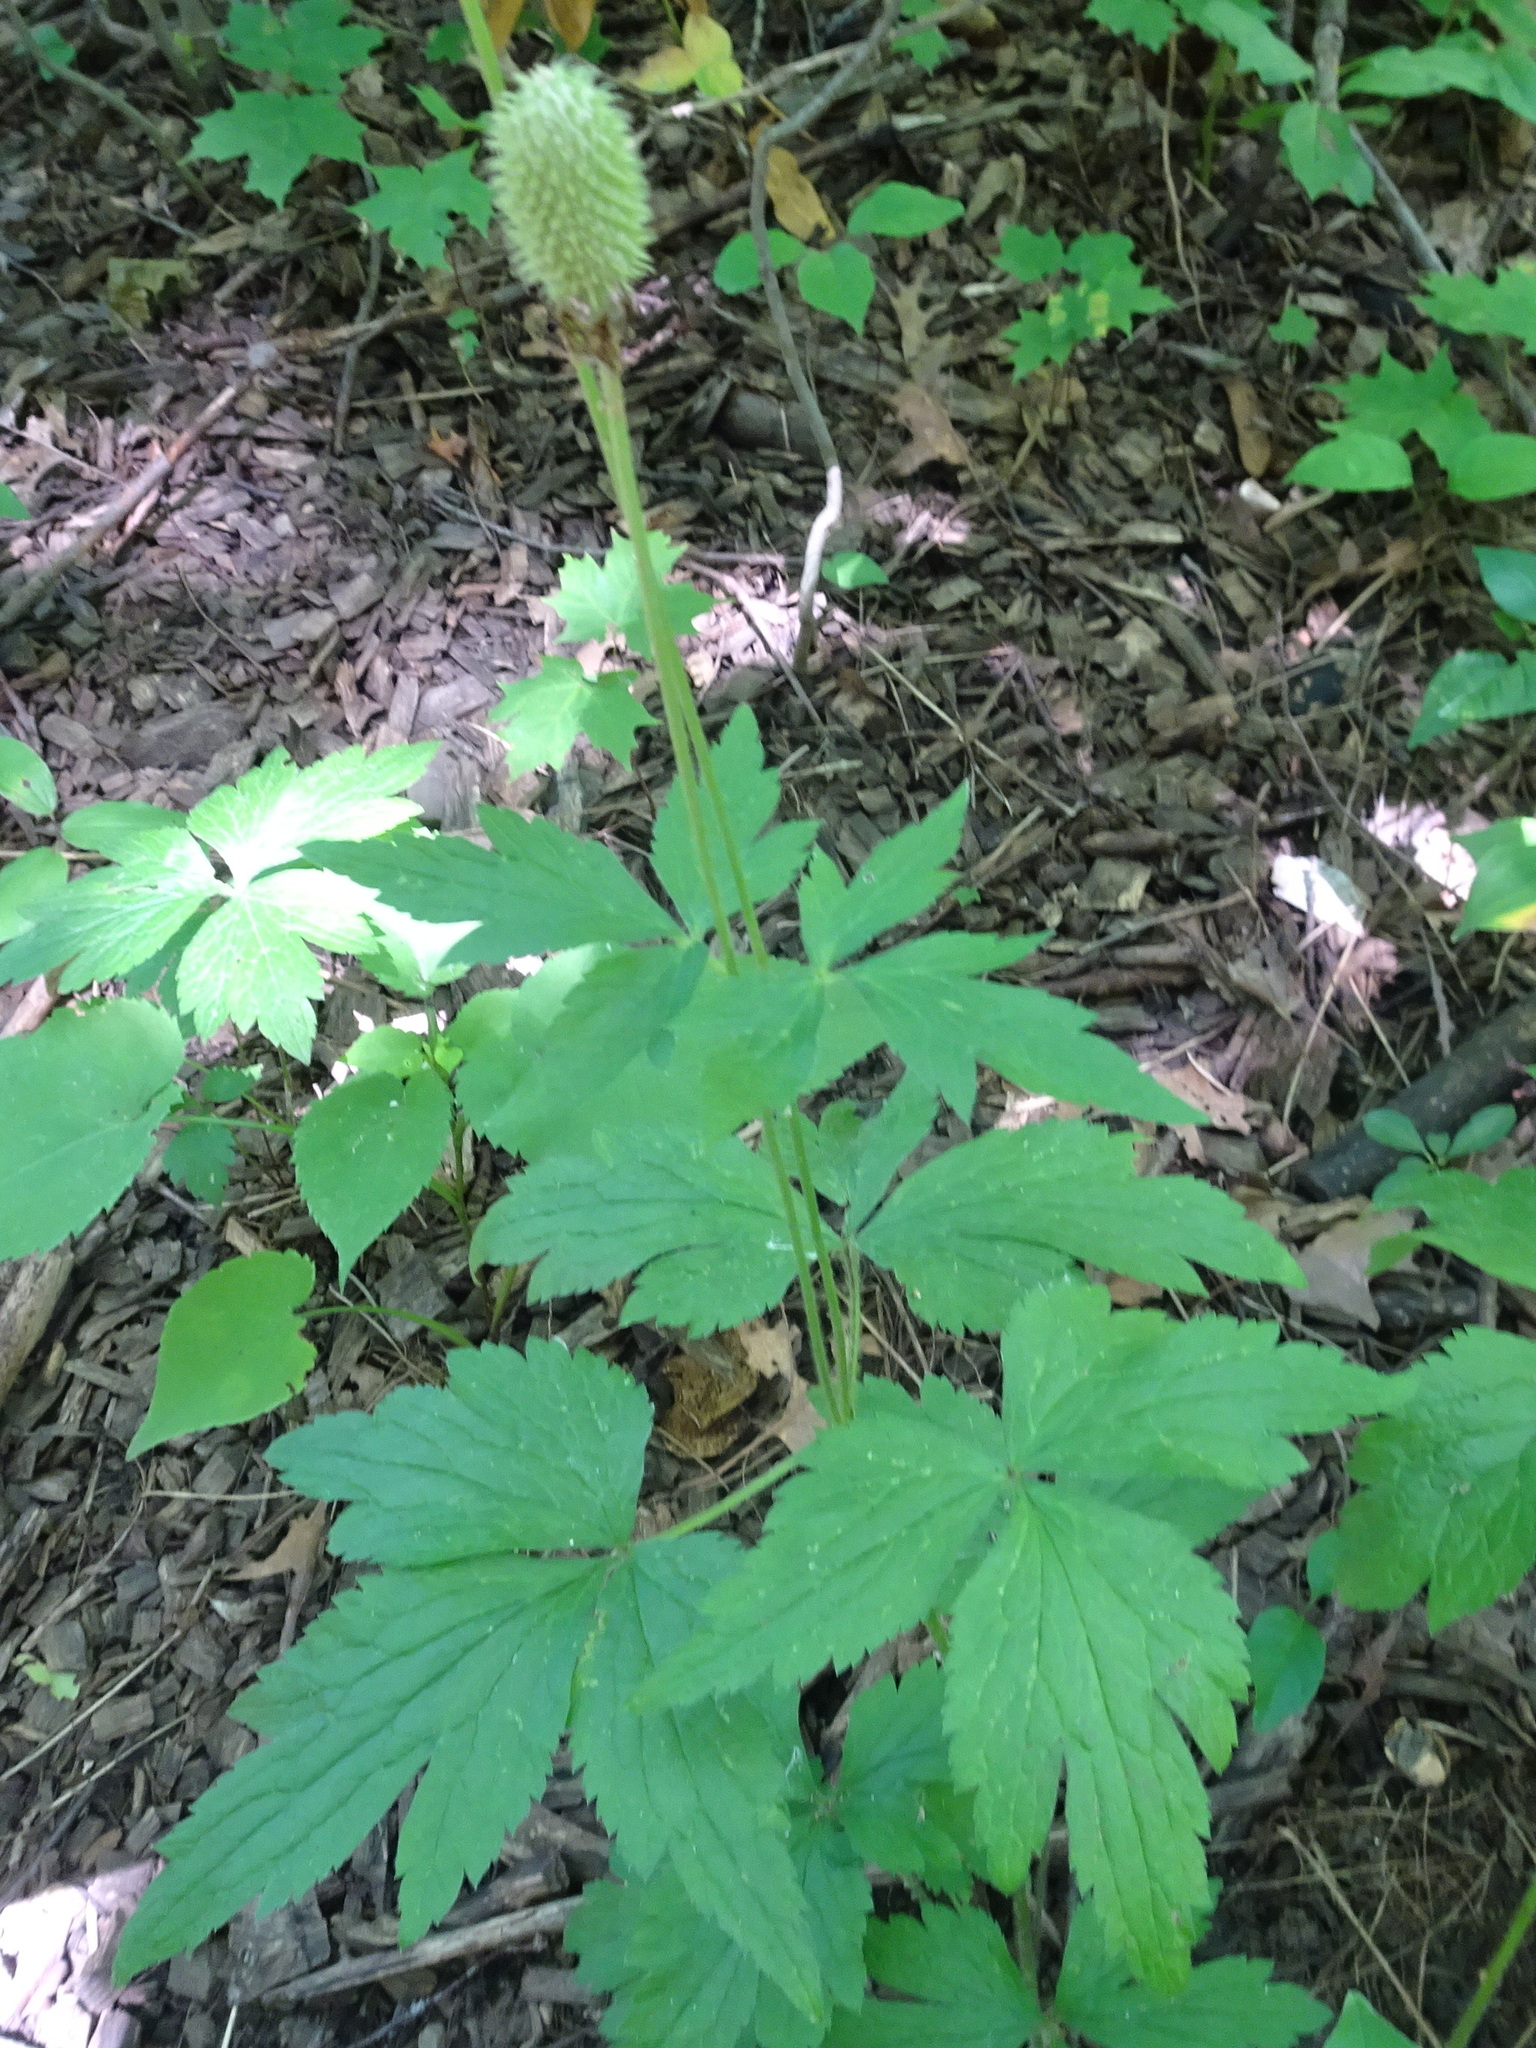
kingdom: Plantae
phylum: Tracheophyta
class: Magnoliopsida
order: Ranunculales
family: Ranunculaceae
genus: Anemone
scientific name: Anemone virginiana
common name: Tall anemone
